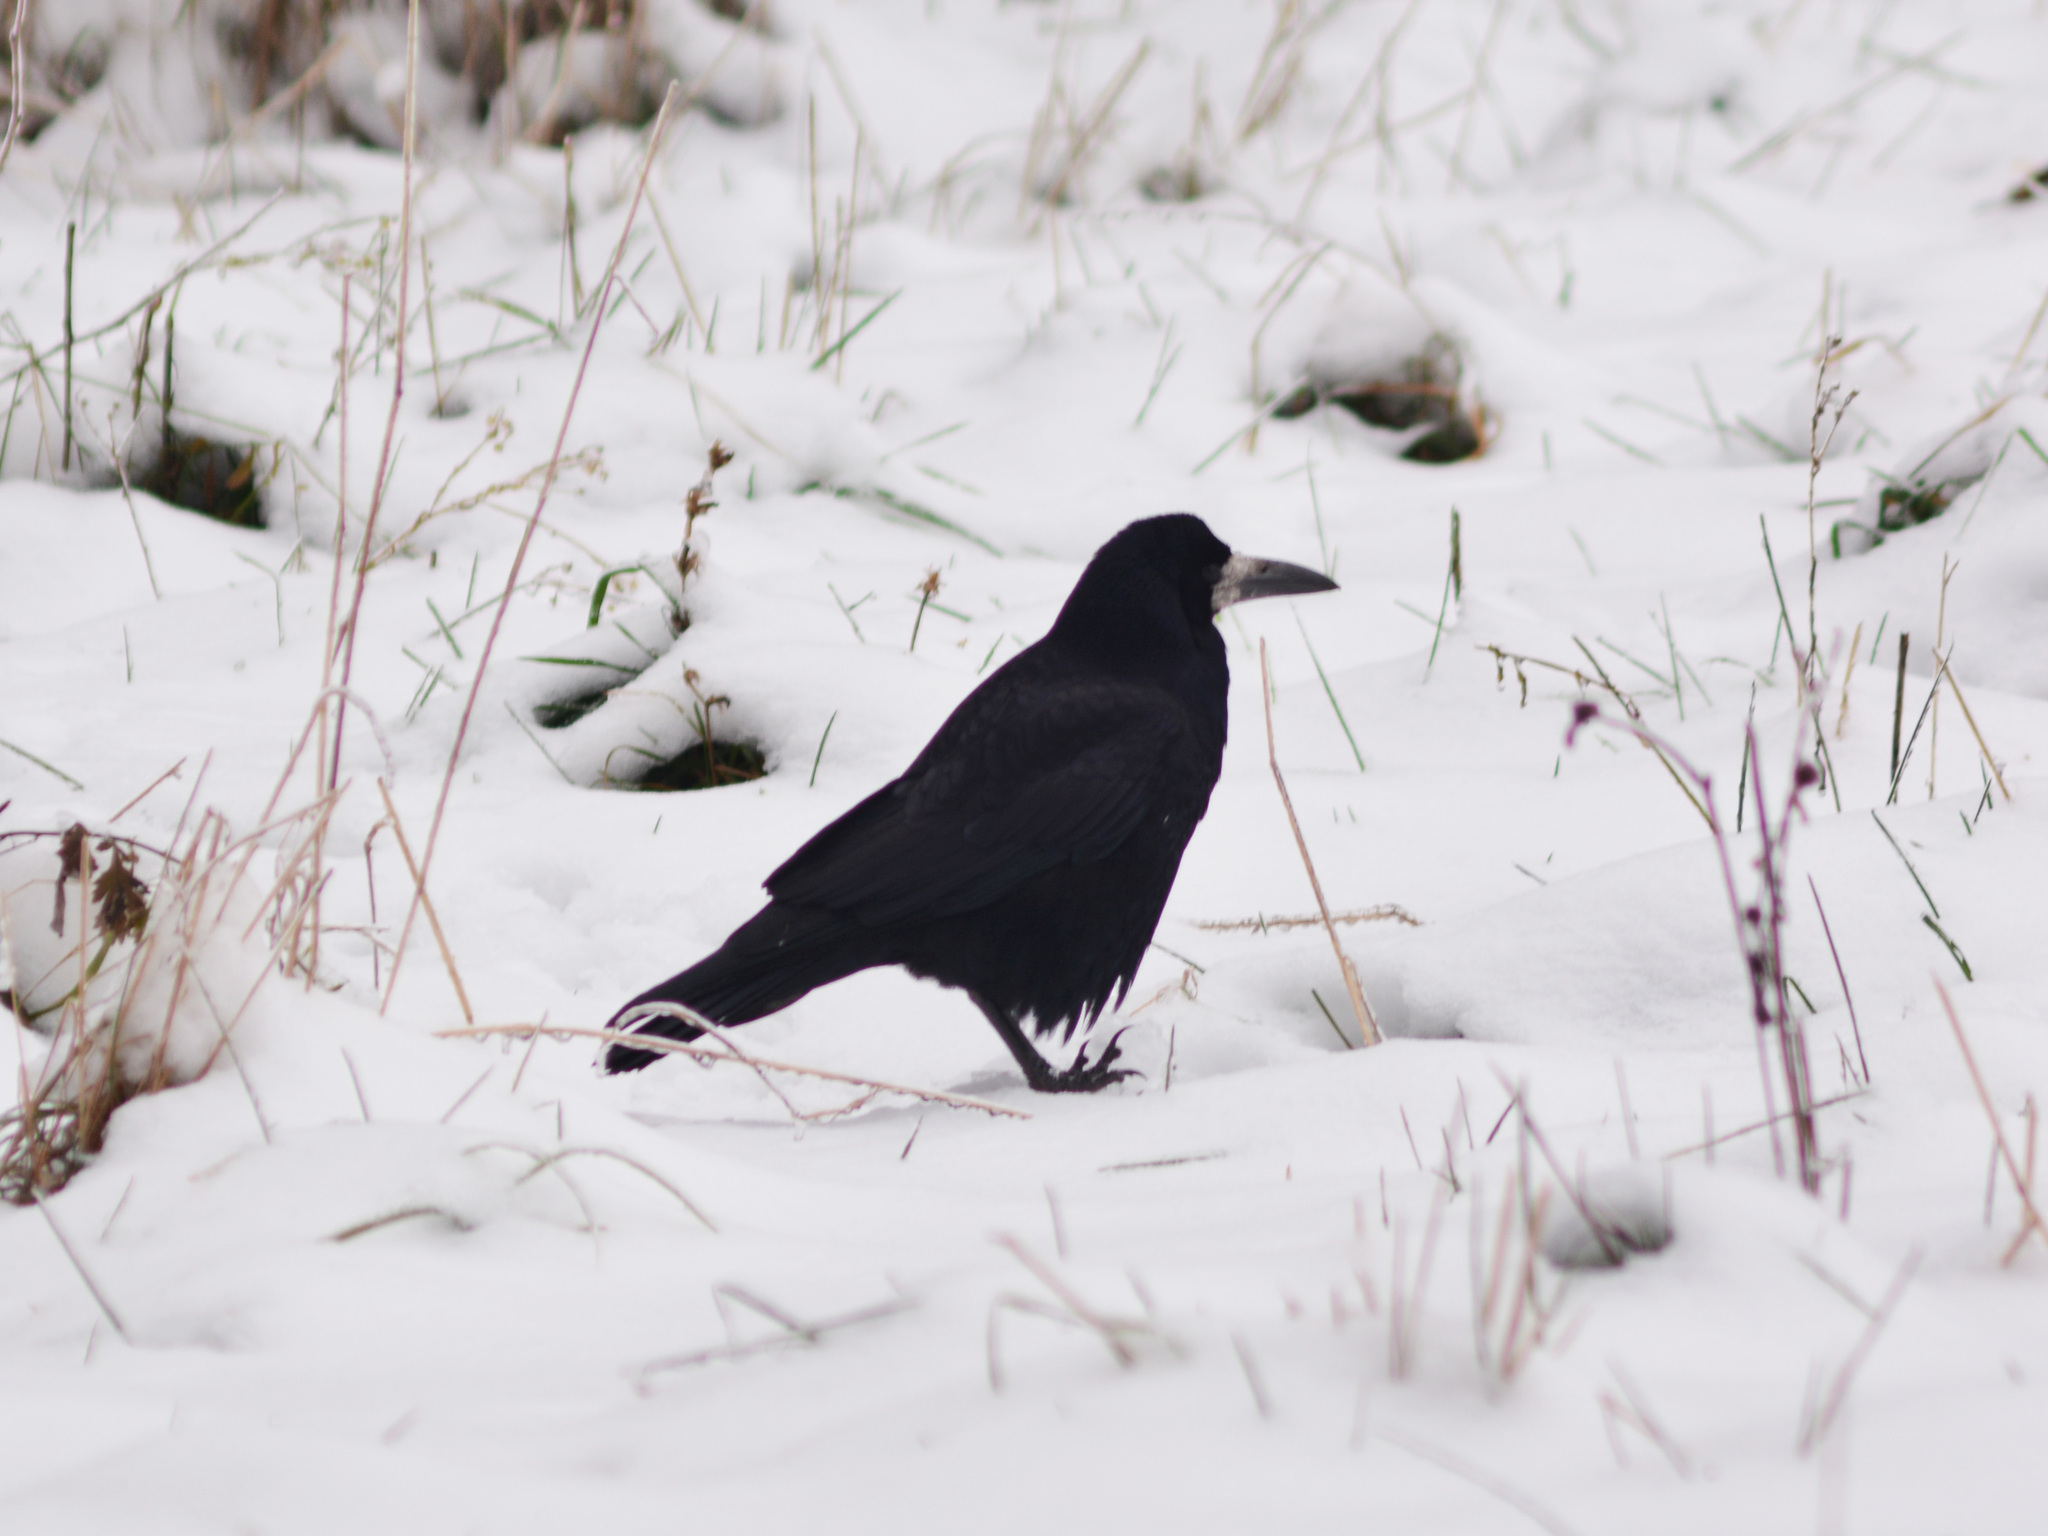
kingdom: Animalia
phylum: Chordata
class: Aves
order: Passeriformes
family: Corvidae
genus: Corvus
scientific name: Corvus frugilegus
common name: Rook
